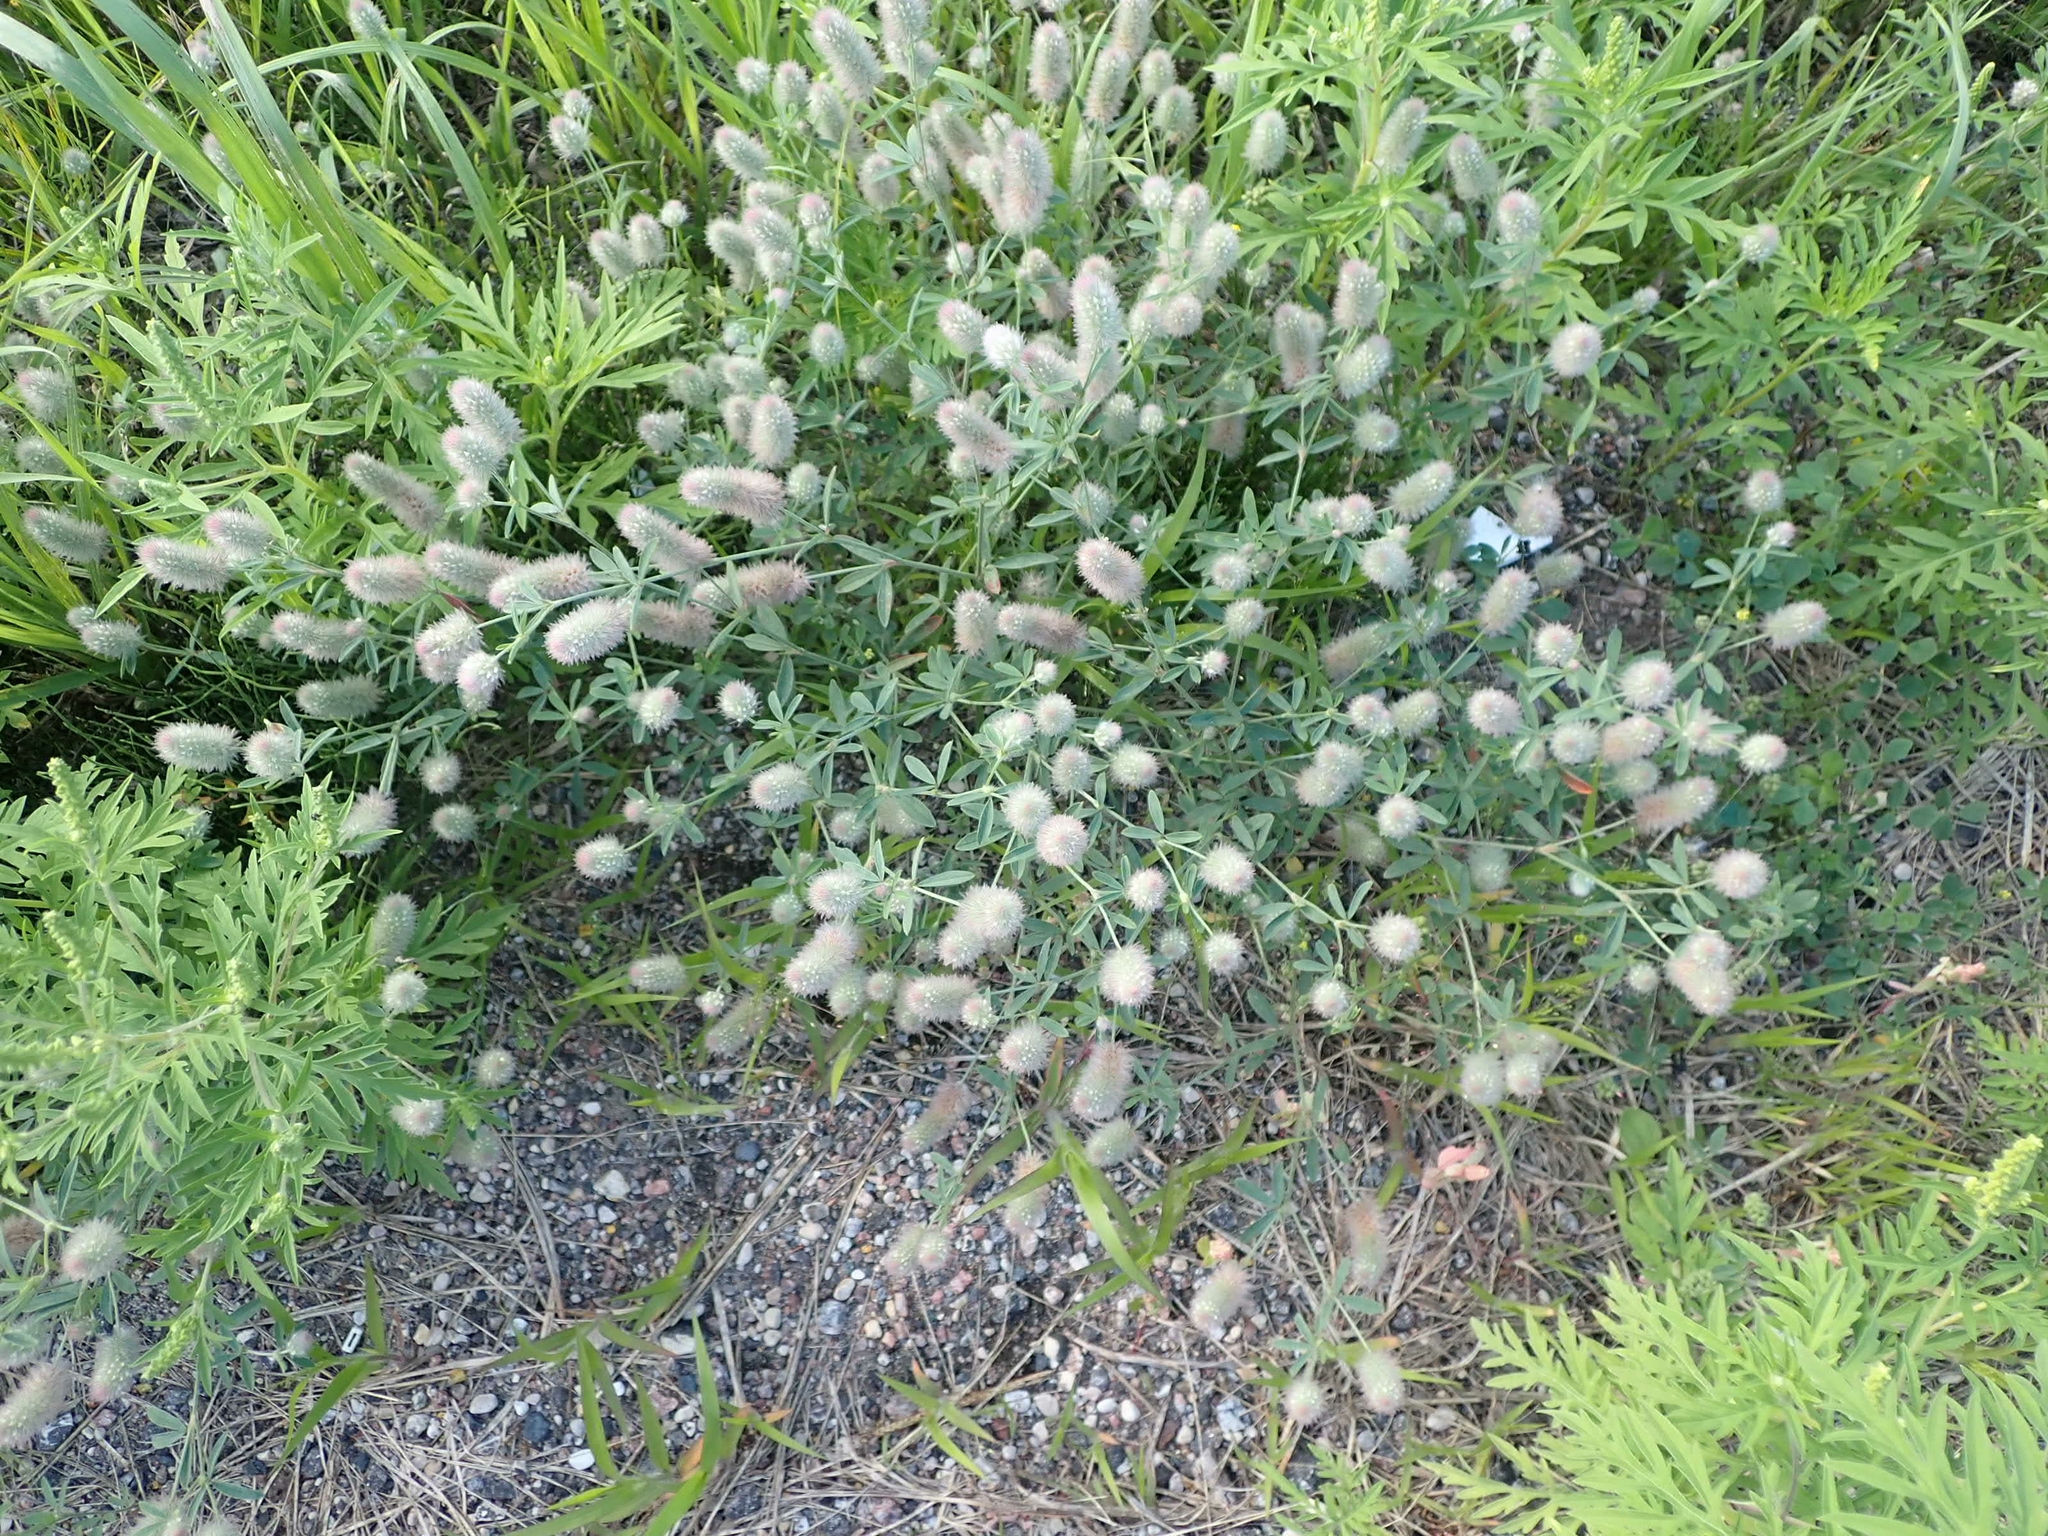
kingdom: Plantae
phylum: Tracheophyta
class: Magnoliopsida
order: Fabales
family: Fabaceae
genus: Trifolium
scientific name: Trifolium arvense
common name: Hare's-foot clover
